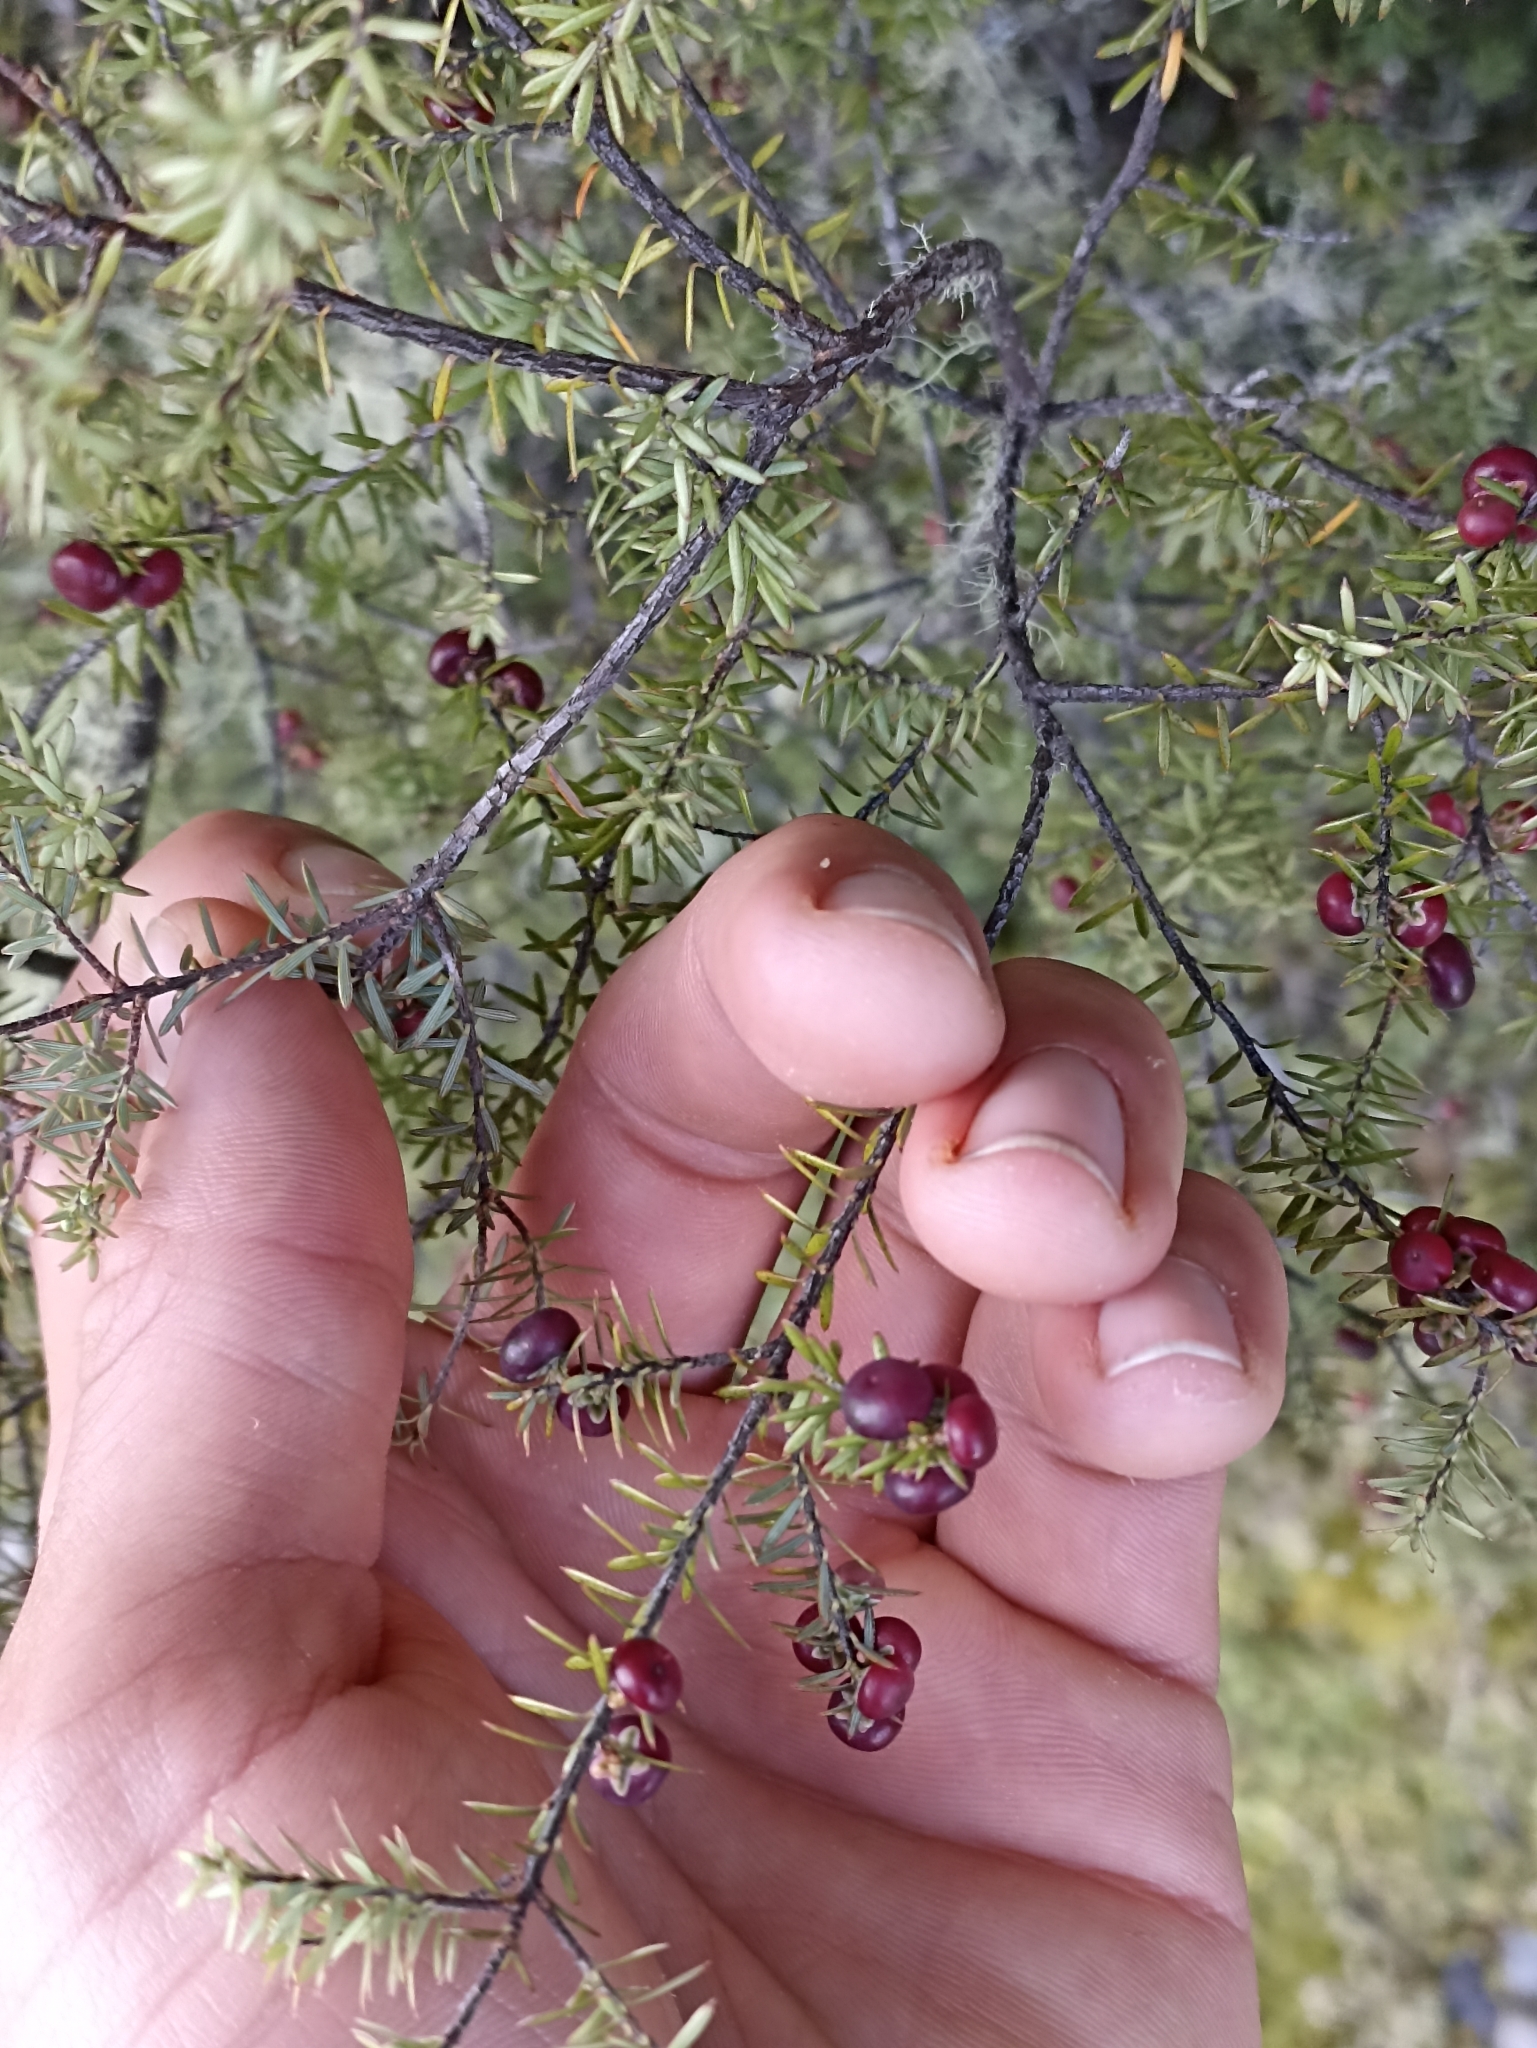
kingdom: Plantae
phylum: Tracheophyta
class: Magnoliopsida
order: Ericales
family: Ericaceae
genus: Leptecophylla
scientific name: Leptecophylla juniperina
